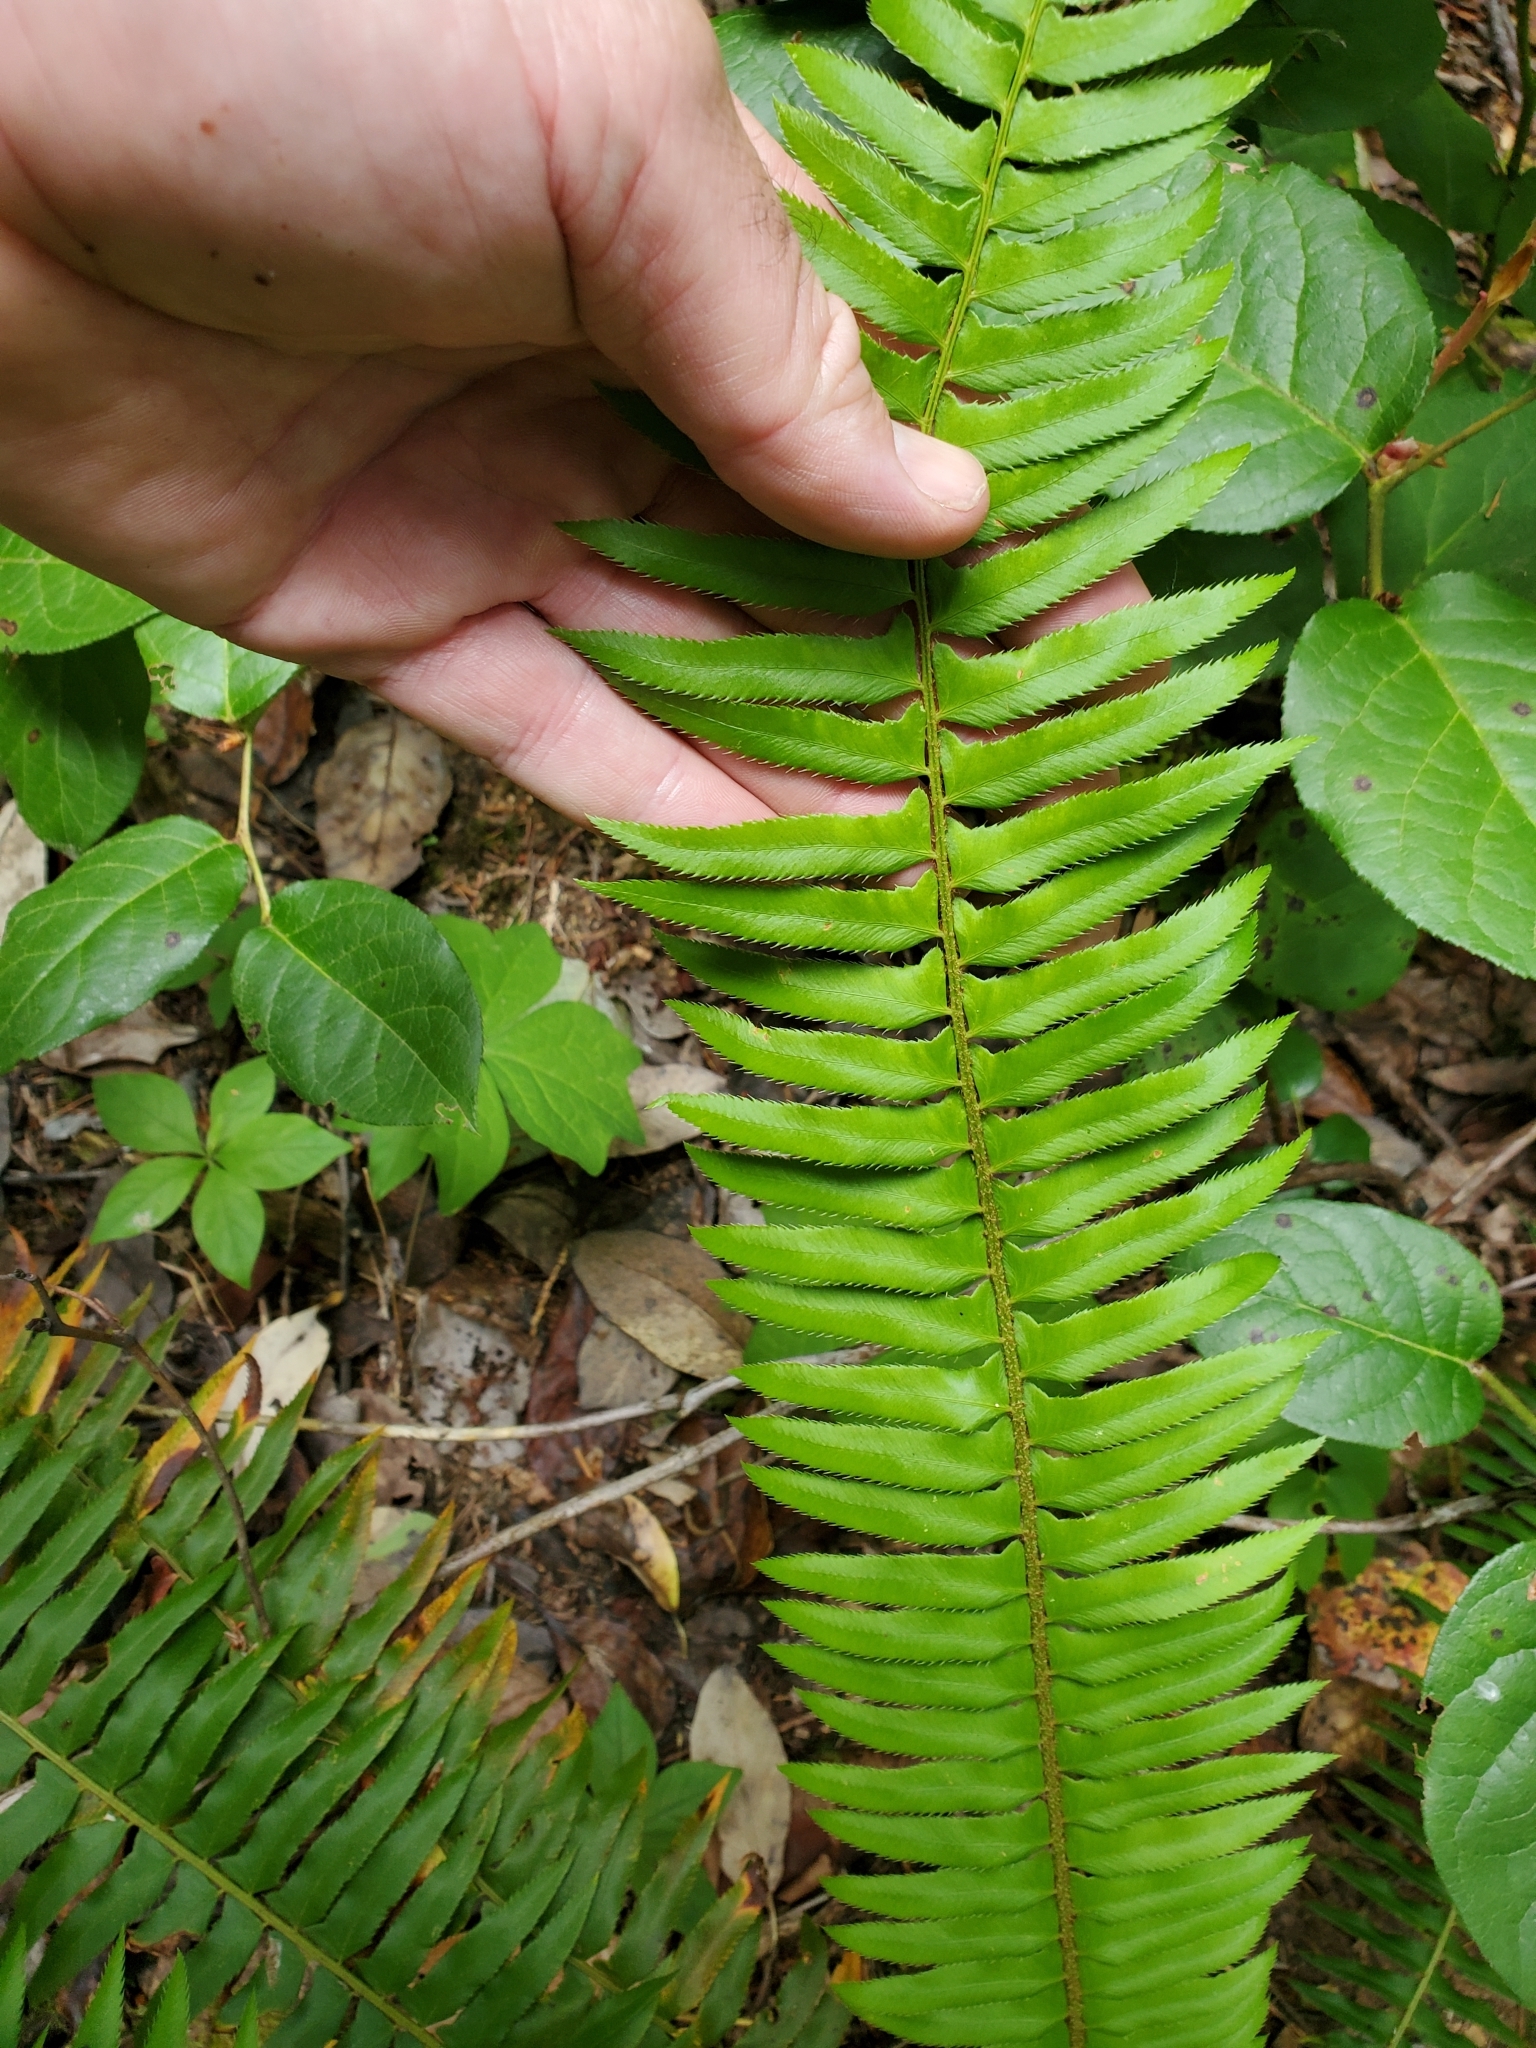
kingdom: Plantae
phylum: Tracheophyta
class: Polypodiopsida
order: Polypodiales
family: Dryopteridaceae
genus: Polystichum
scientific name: Polystichum munitum
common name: Western sword-fern
